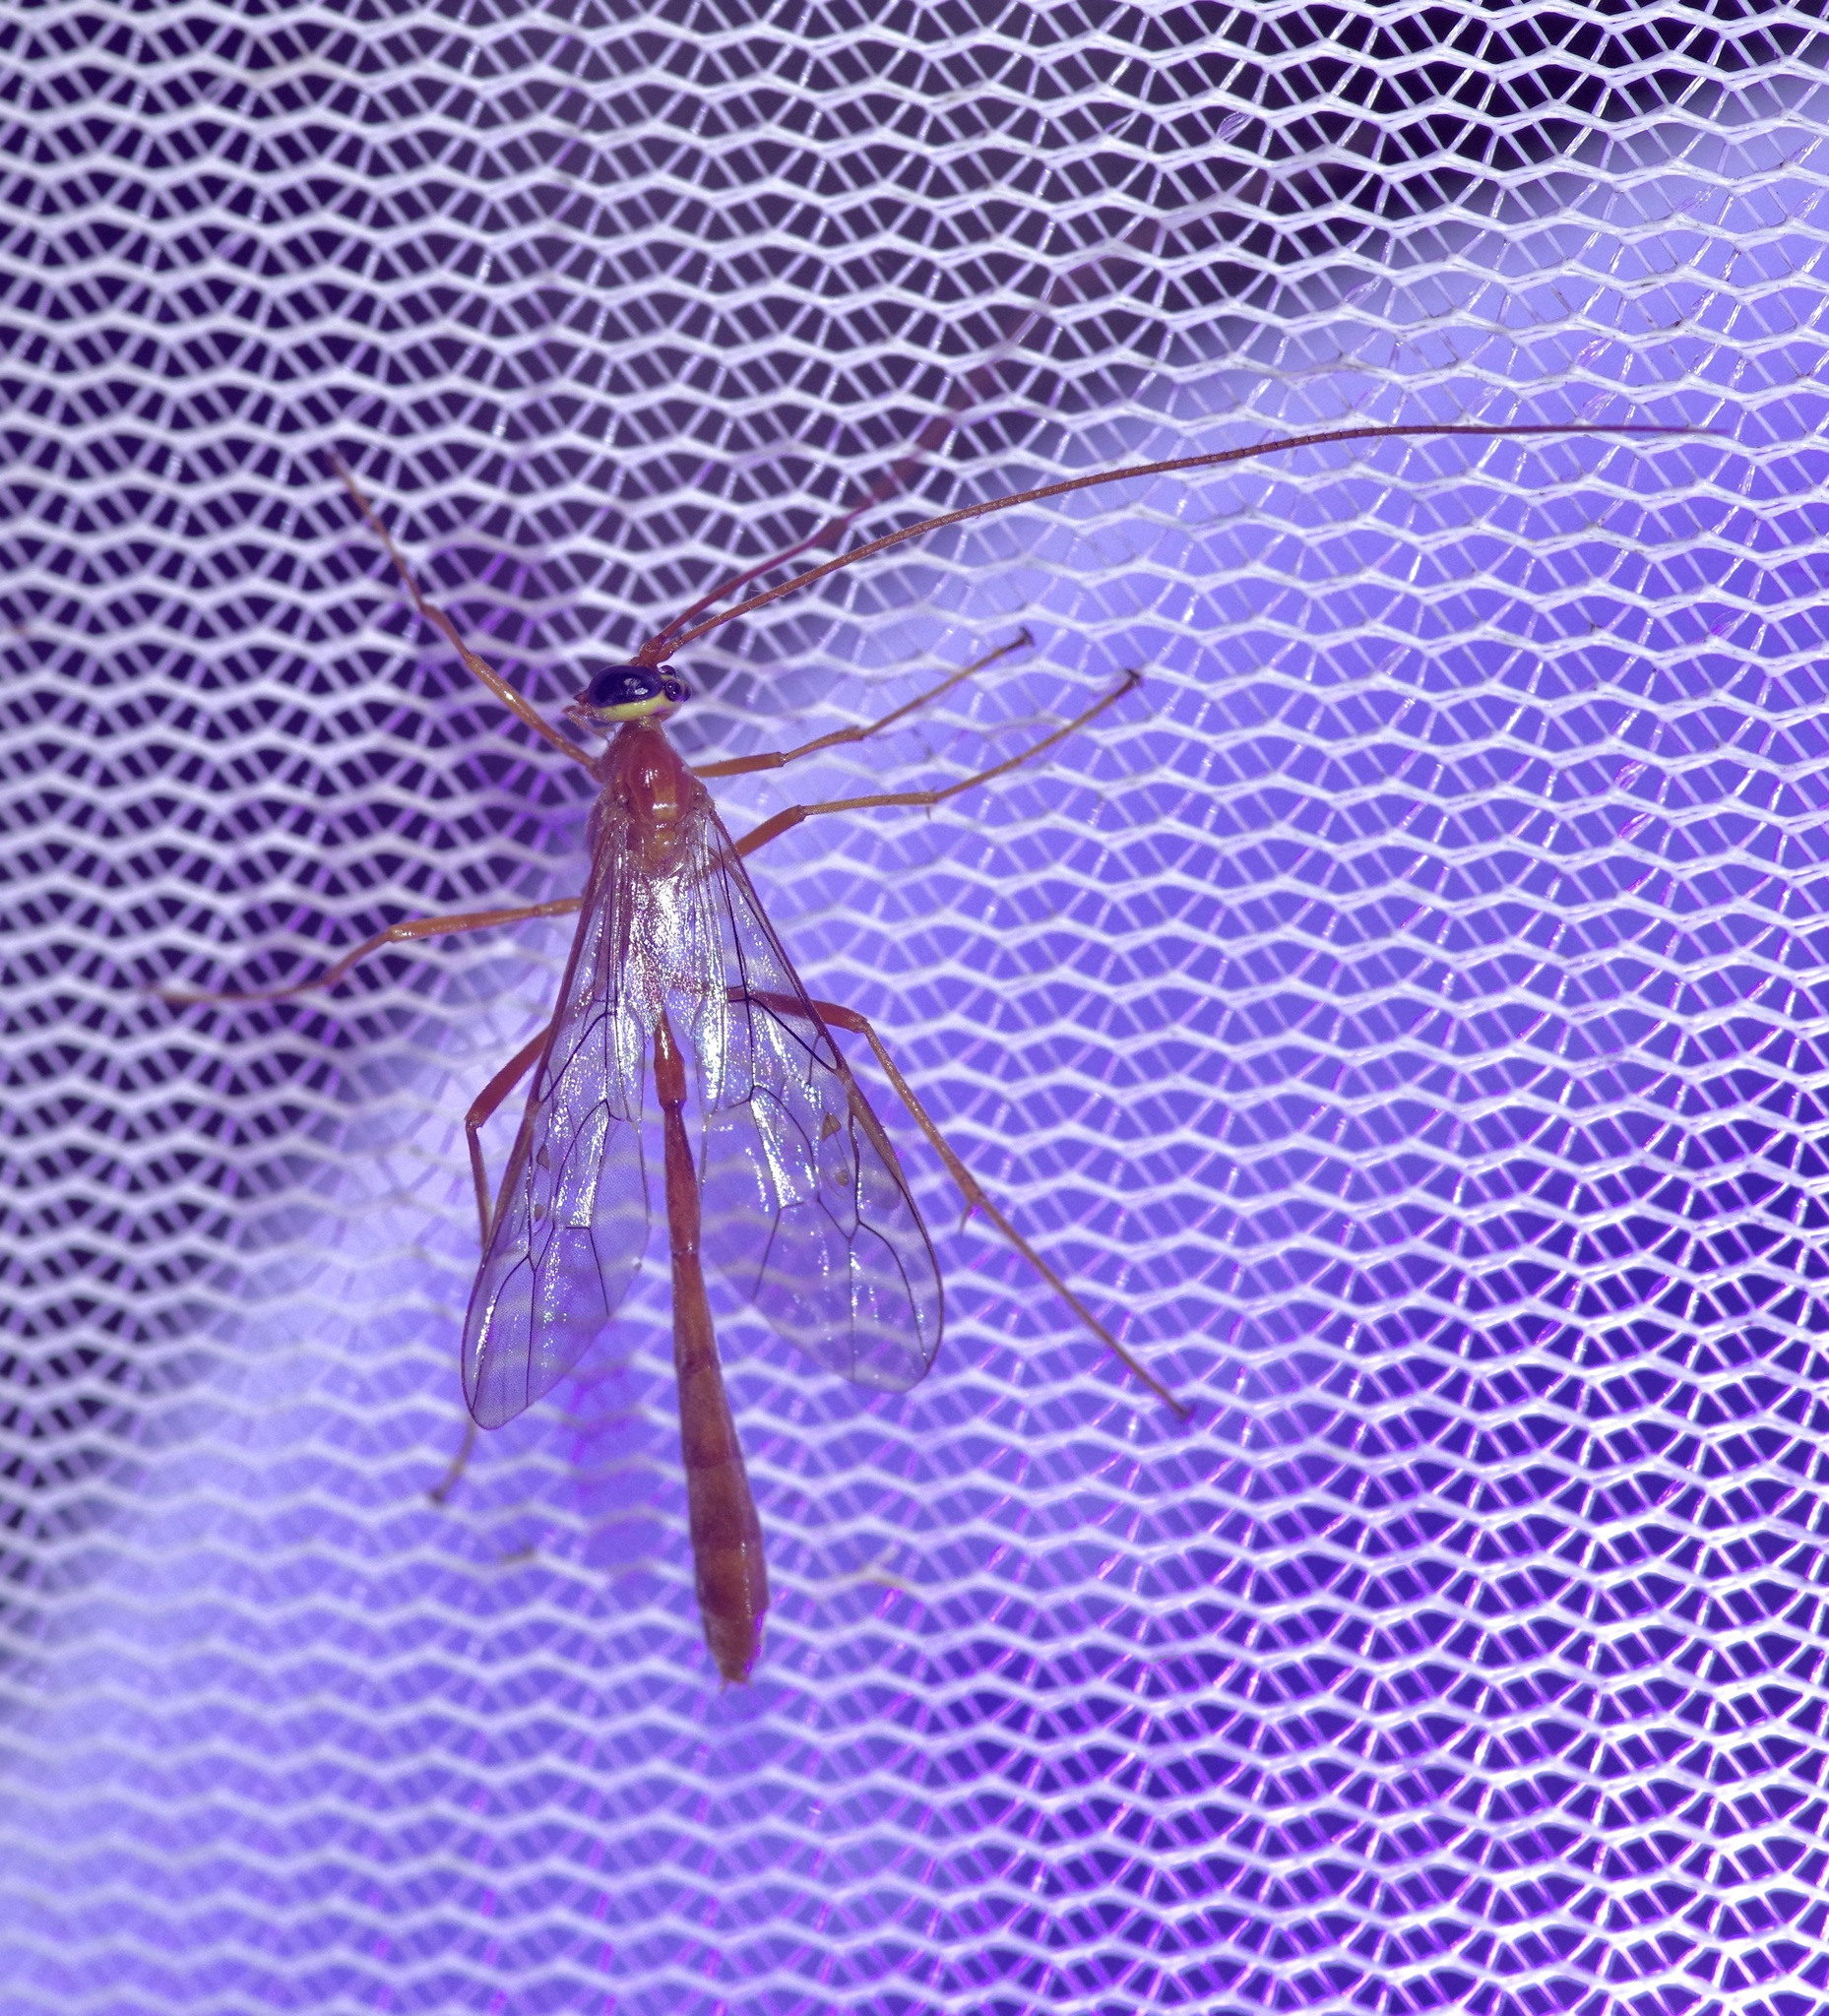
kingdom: Animalia
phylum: Arthropoda
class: Insecta
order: Hymenoptera
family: Ichneumonidae
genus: Enicospilus
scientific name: Enicospilus purgatus
